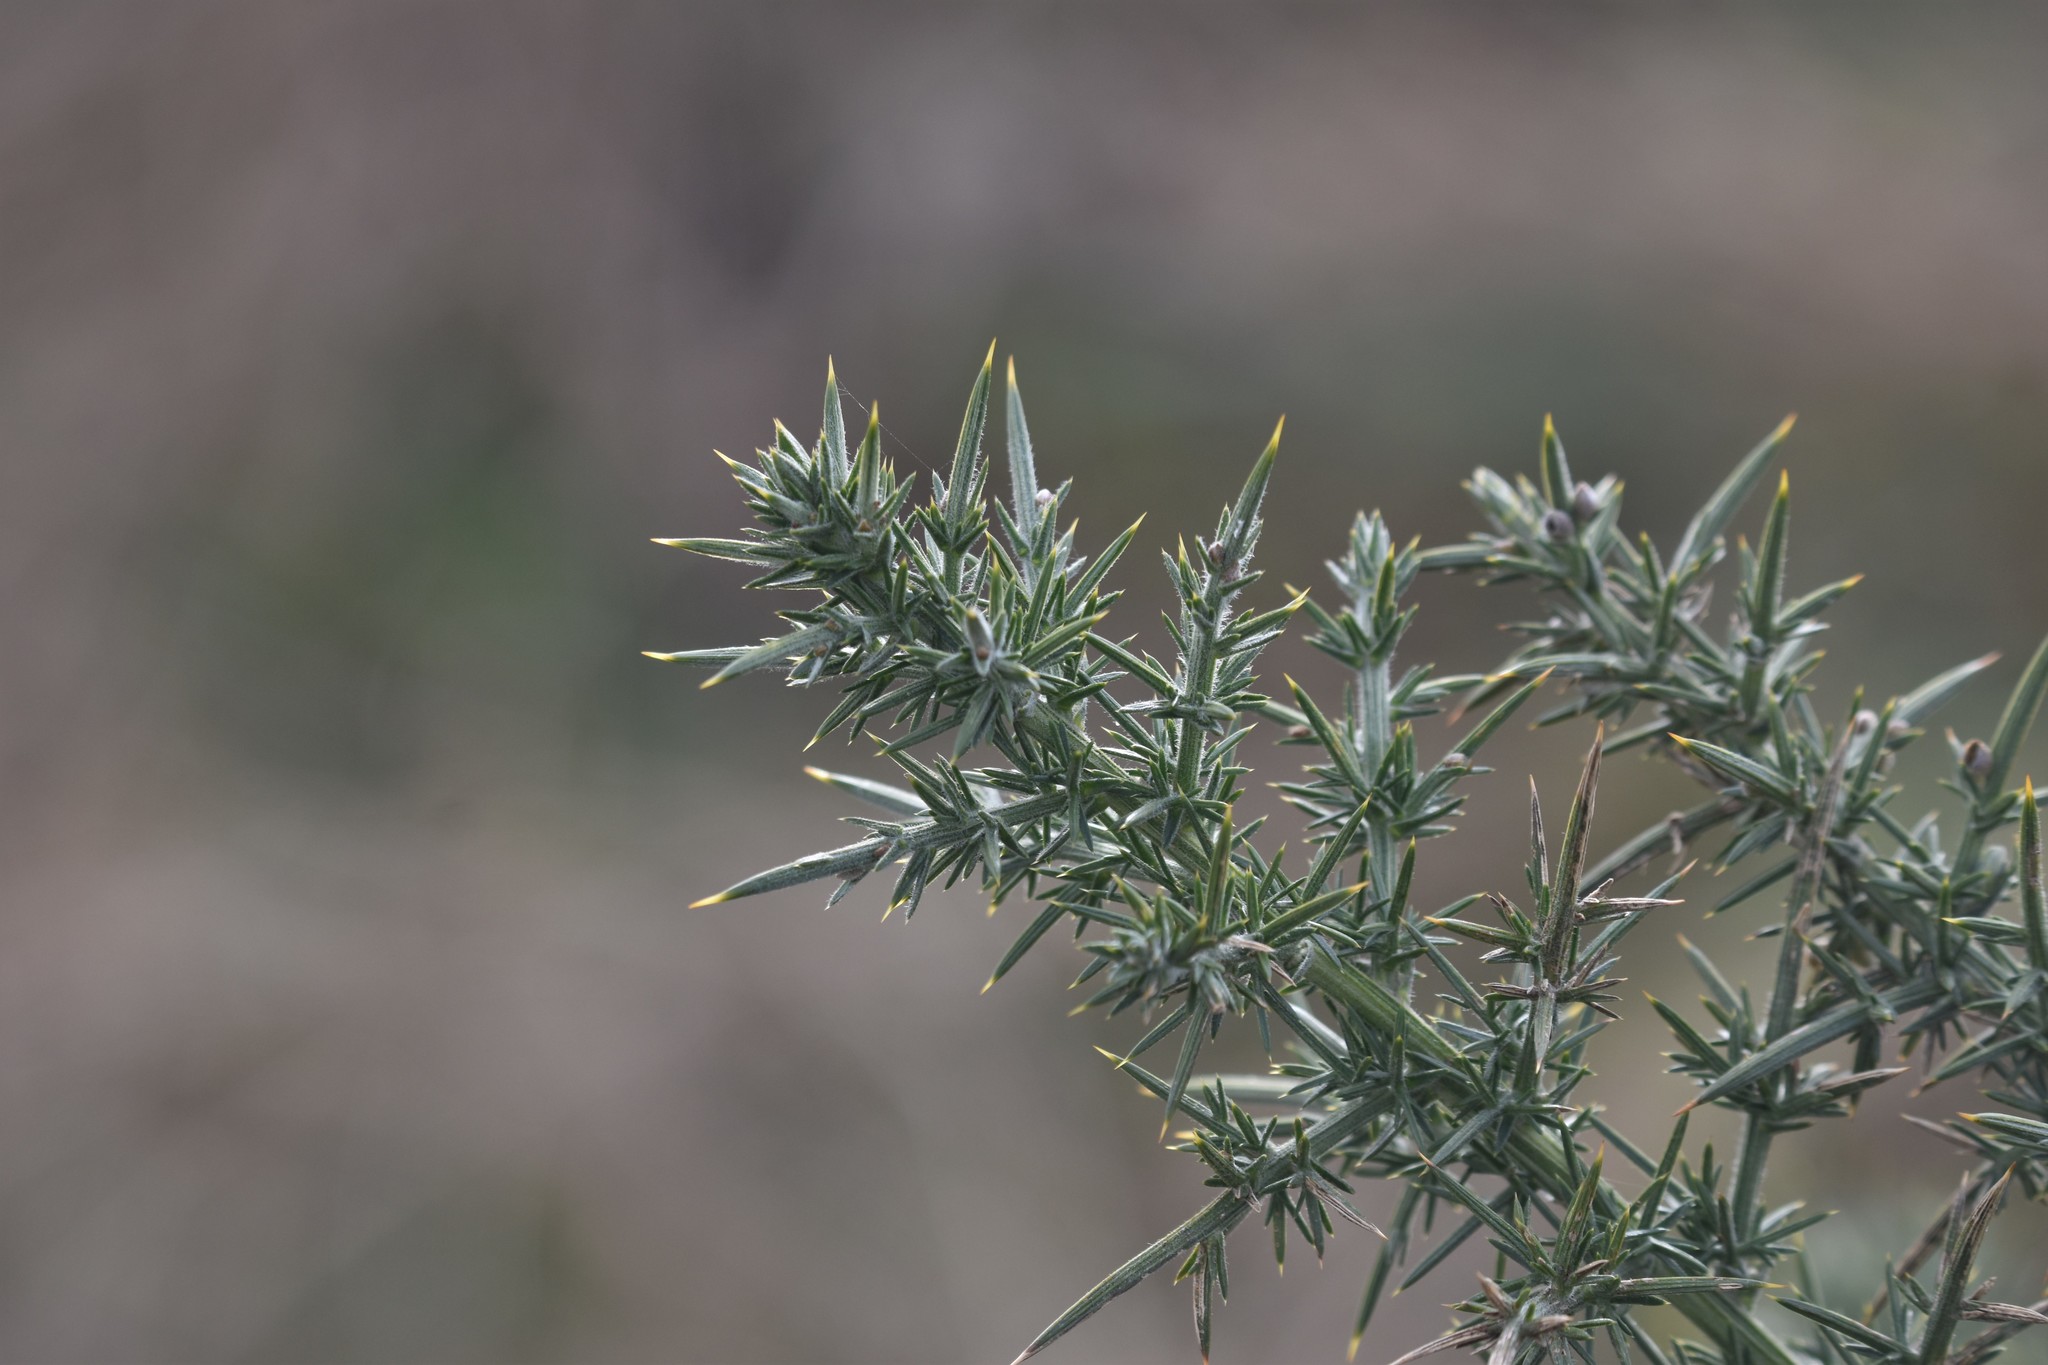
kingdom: Plantae
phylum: Tracheophyta
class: Magnoliopsida
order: Fabales
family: Fabaceae
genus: Ulex
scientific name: Ulex europaeus
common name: Common gorse
